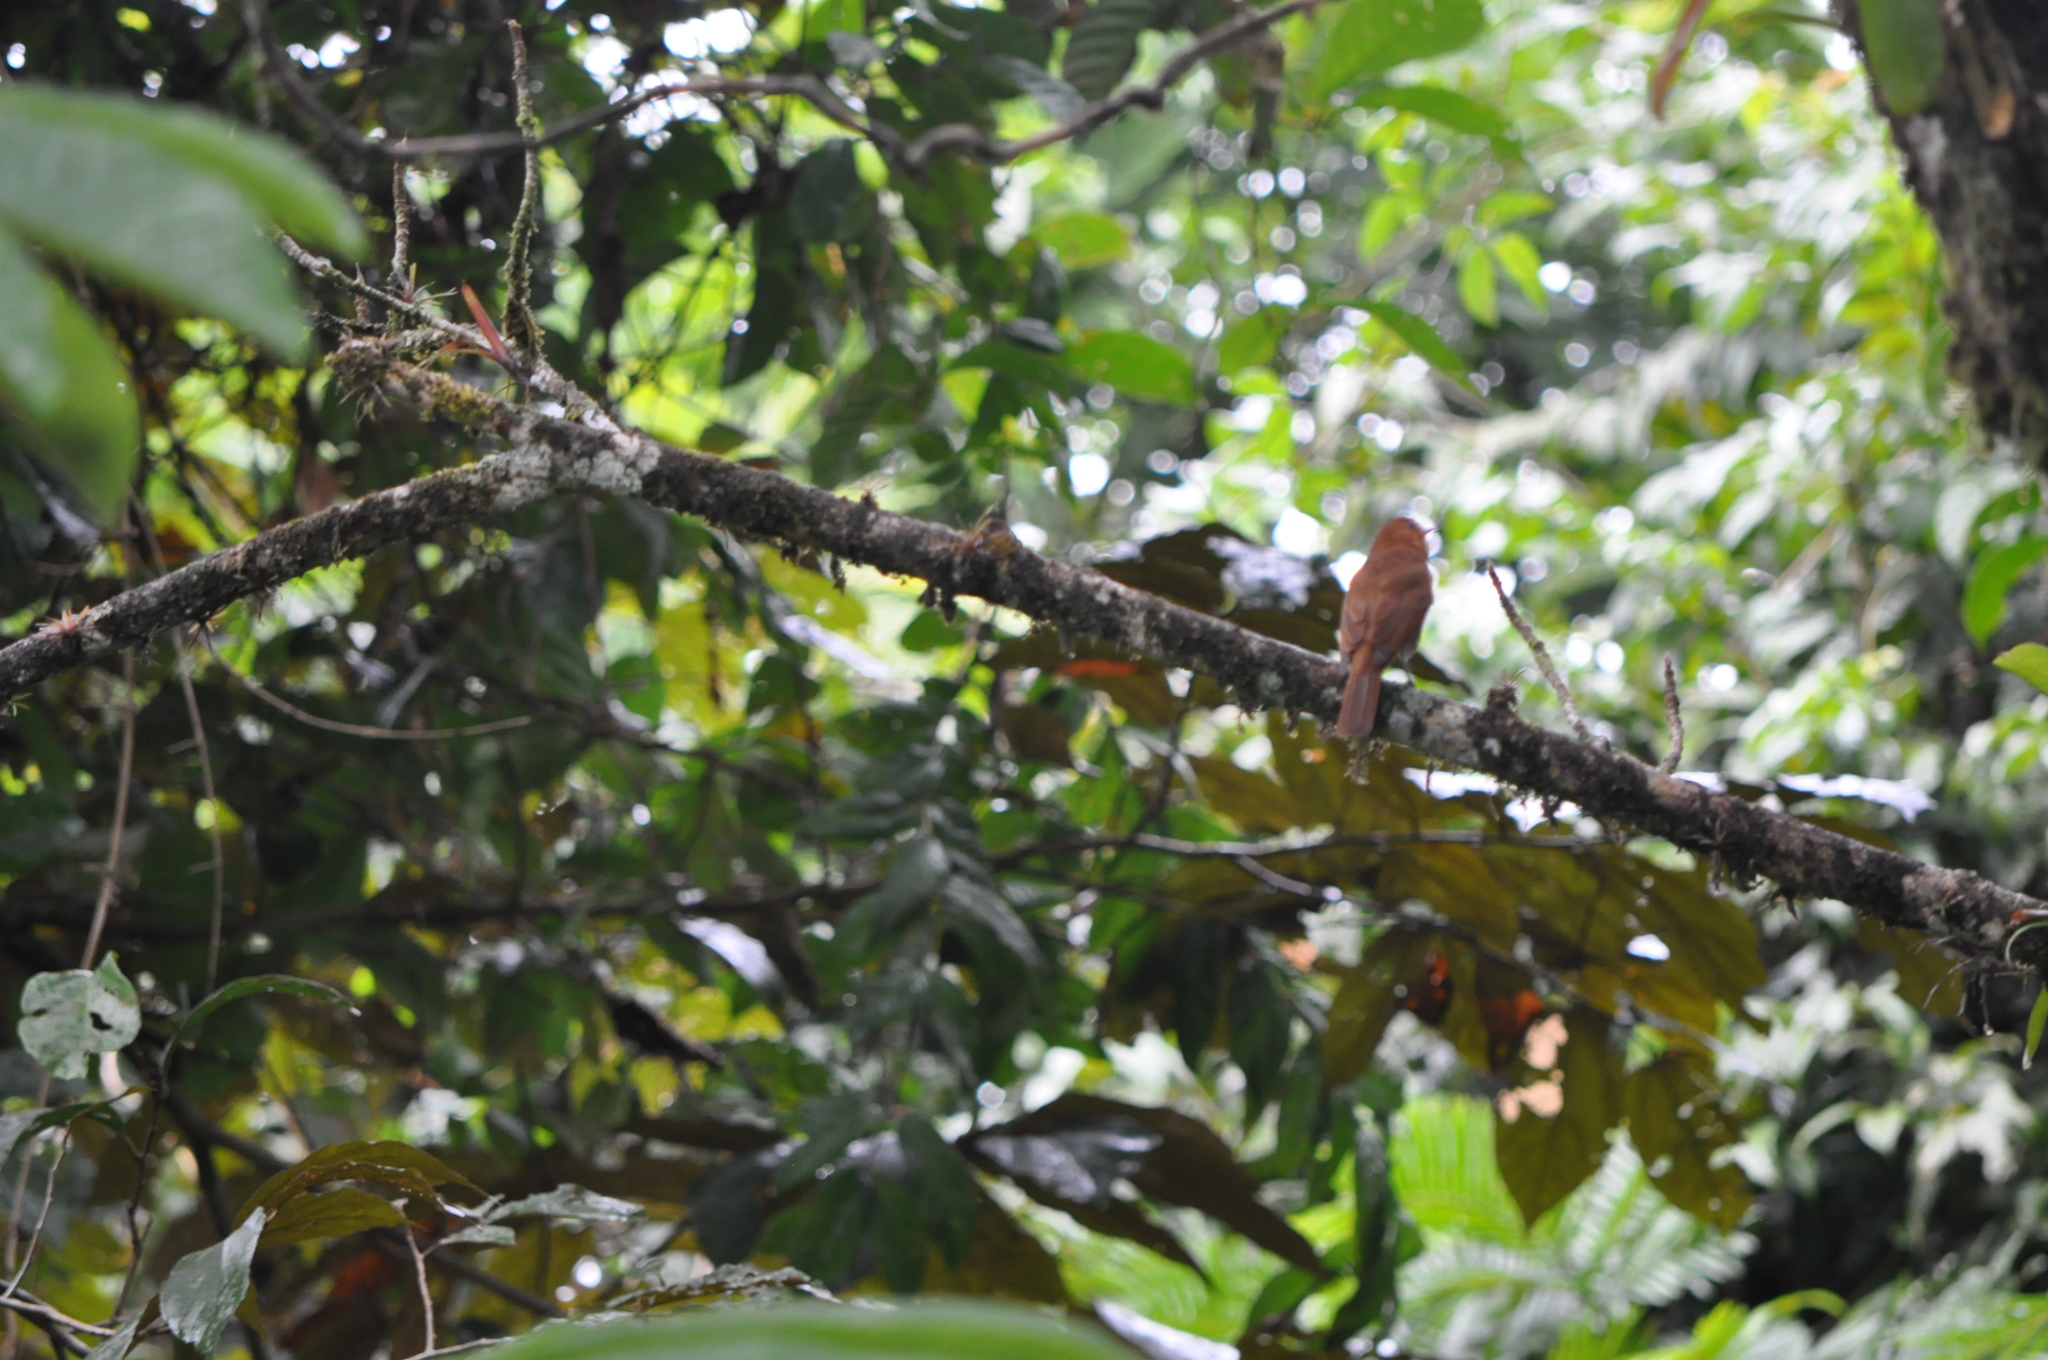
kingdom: Animalia
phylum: Chordata
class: Aves
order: Passeriformes
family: Tyrannidae
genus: Rhytipterna
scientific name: Rhytipterna holerythra
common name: Rufous mourner
